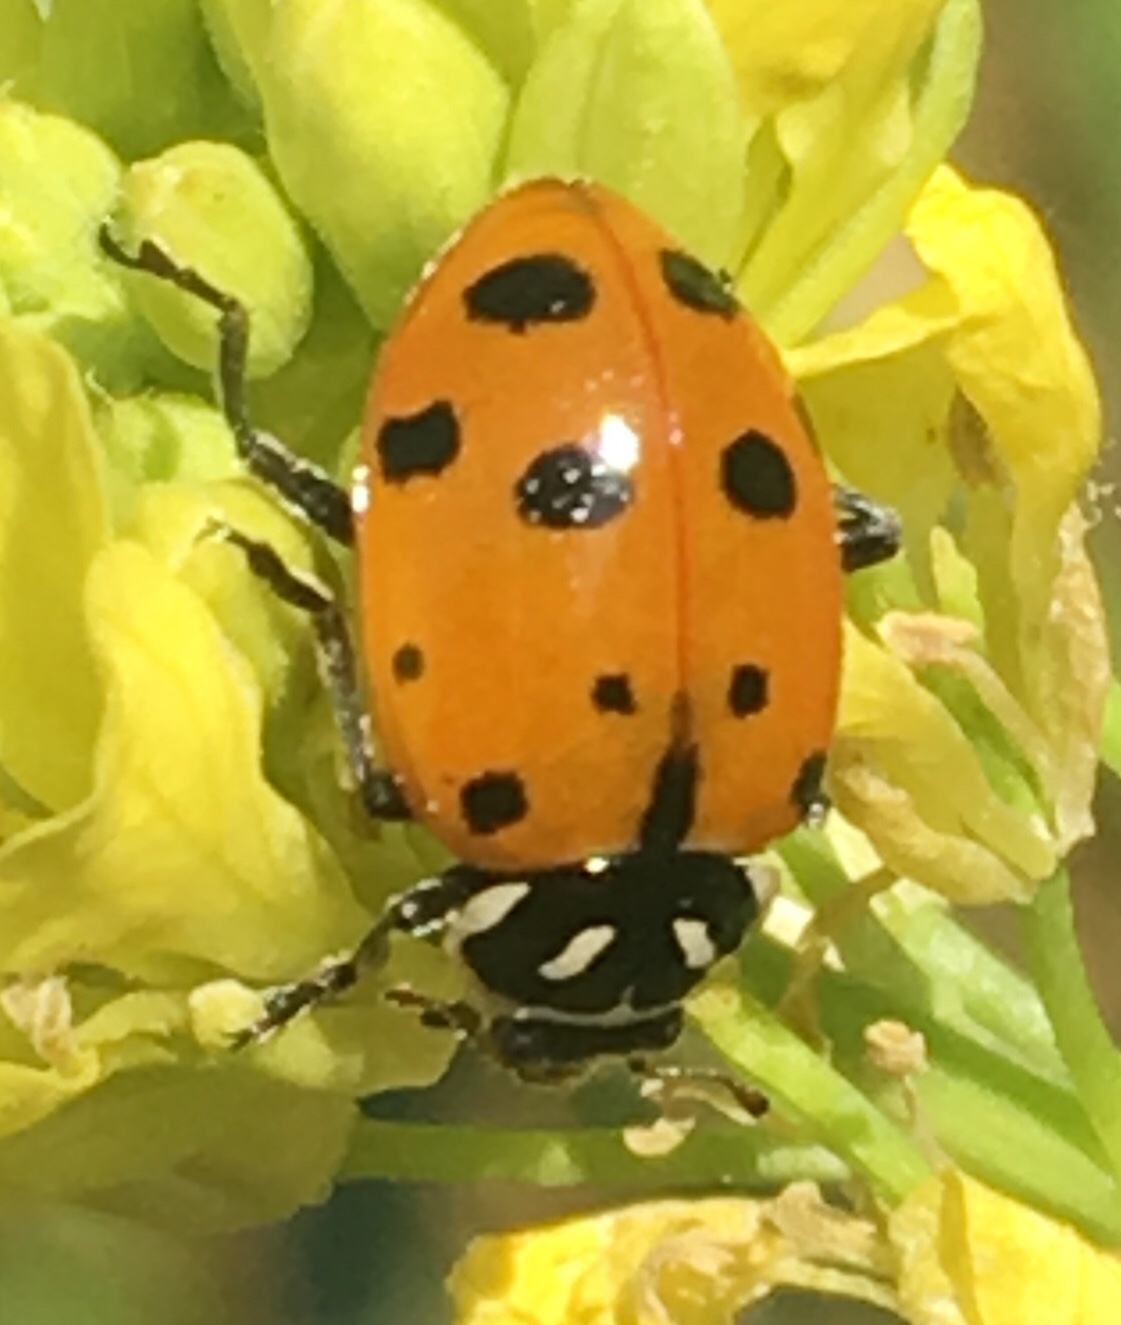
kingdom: Animalia
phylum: Arthropoda
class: Insecta
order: Coleoptera
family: Coccinellidae
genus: Hippodamia
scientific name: Hippodamia convergens
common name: Convergent lady beetle
